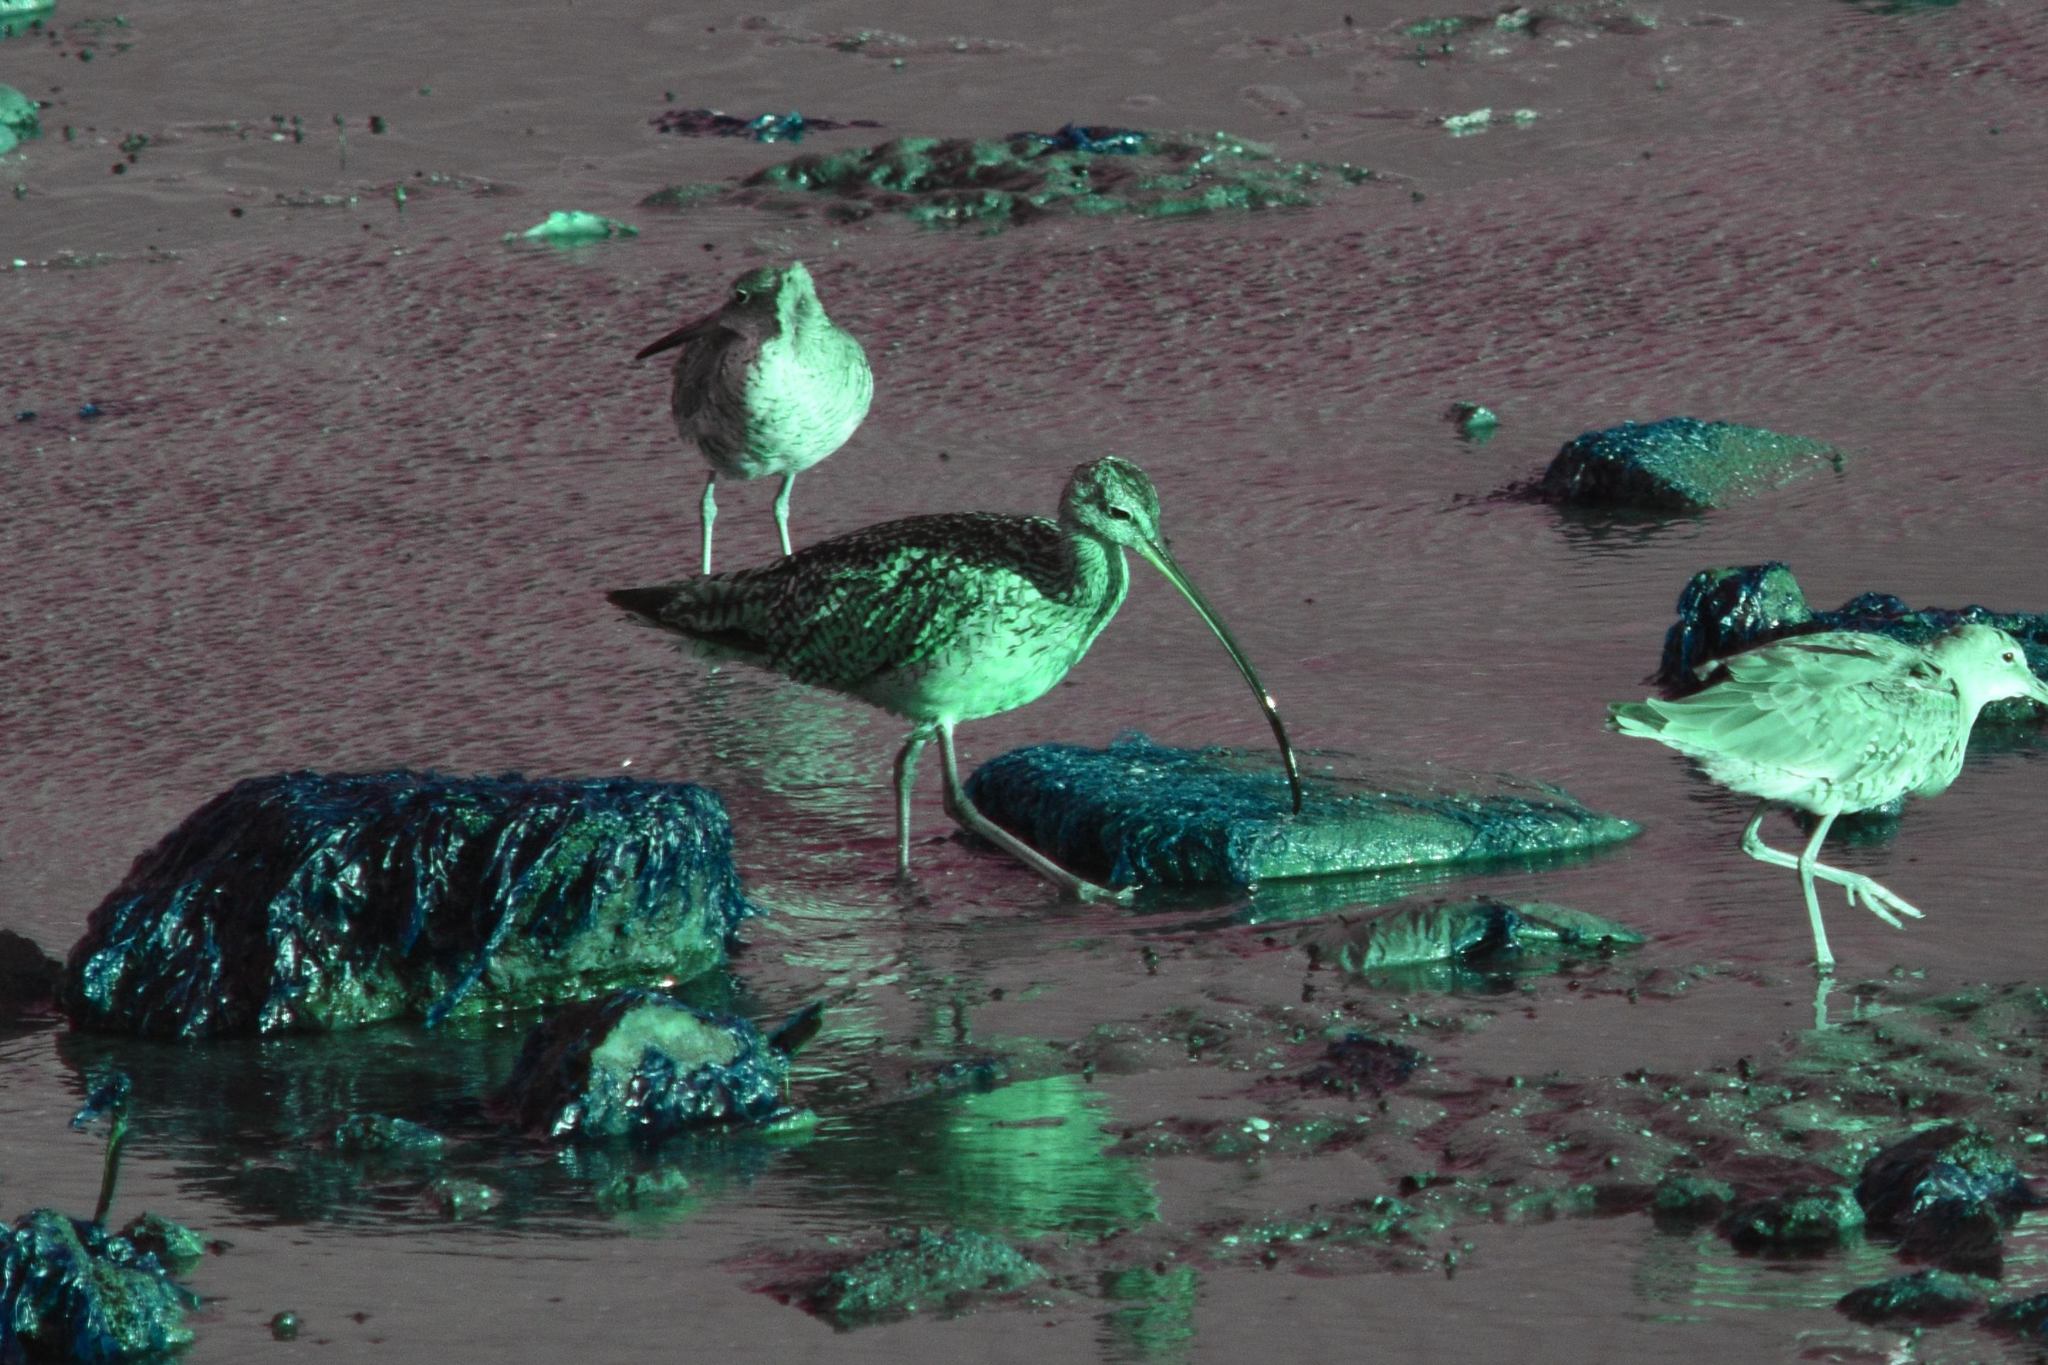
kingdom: Animalia
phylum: Chordata
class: Aves
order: Charadriiformes
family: Scolopacidae
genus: Numenius
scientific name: Numenius americanus
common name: Long-billed curlew
